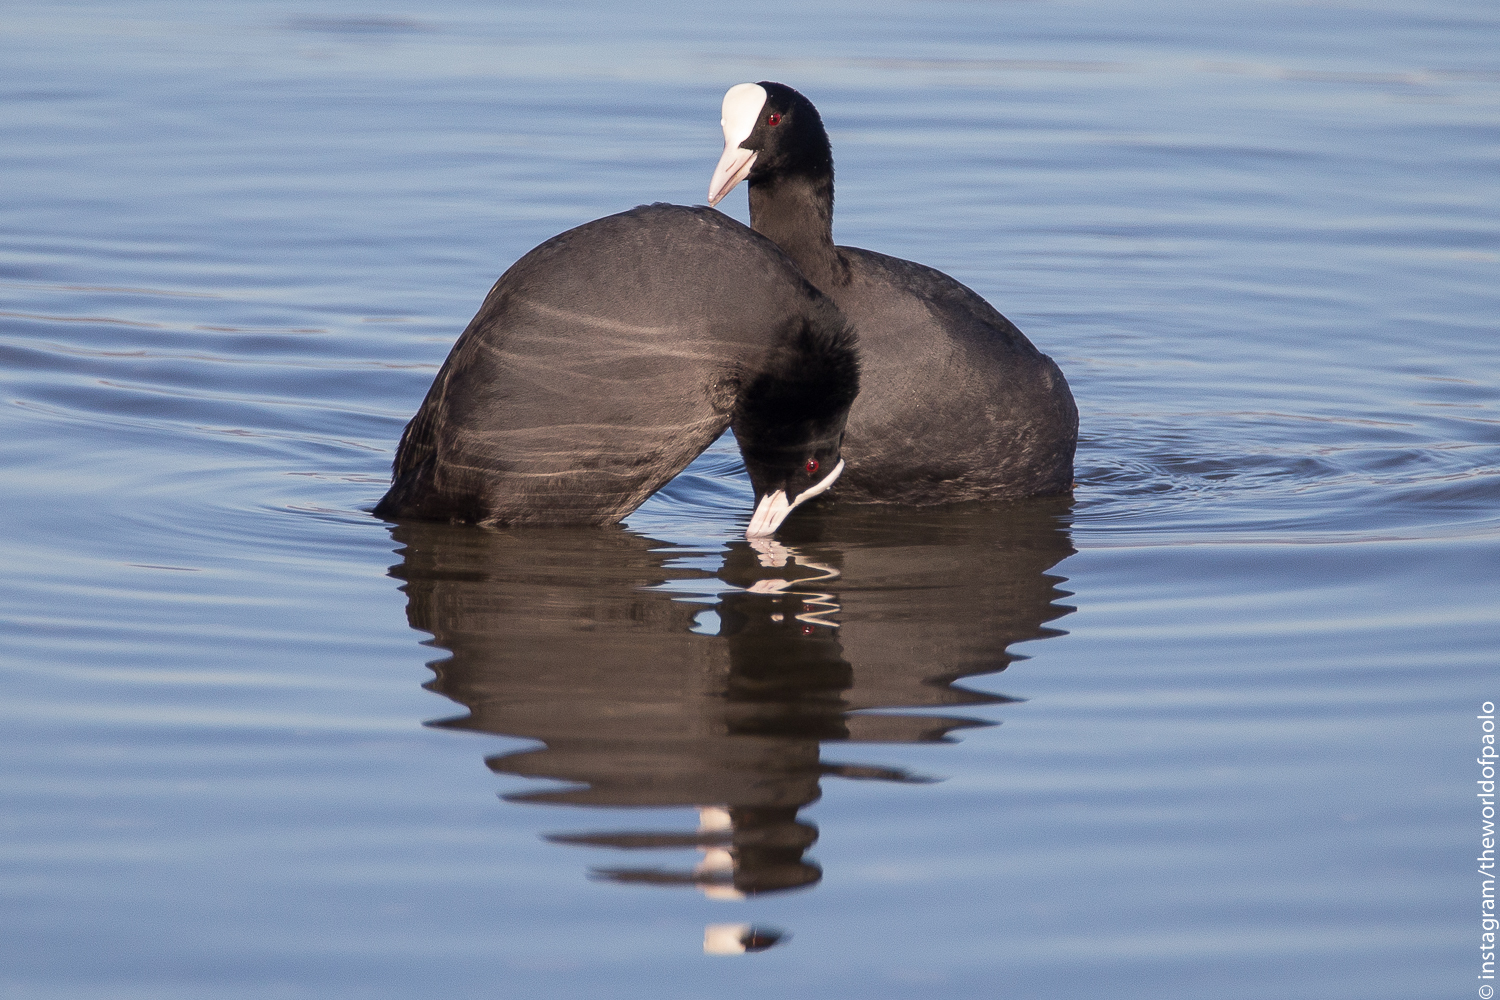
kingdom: Animalia
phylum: Chordata
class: Aves
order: Gruiformes
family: Rallidae
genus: Fulica
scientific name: Fulica atra
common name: Eurasian coot
